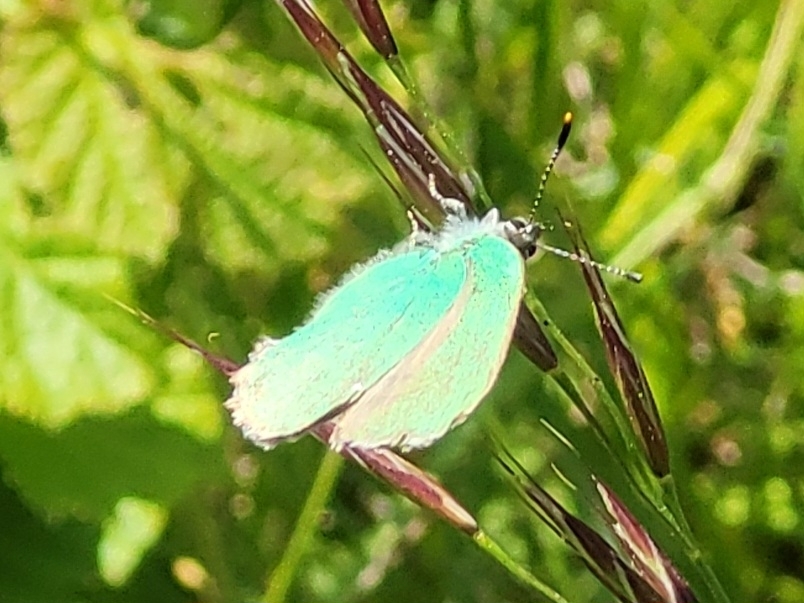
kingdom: Animalia
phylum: Arthropoda
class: Insecta
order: Lepidoptera
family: Lycaenidae
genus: Callophrys
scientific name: Callophrys rubi
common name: Green hairstreak
